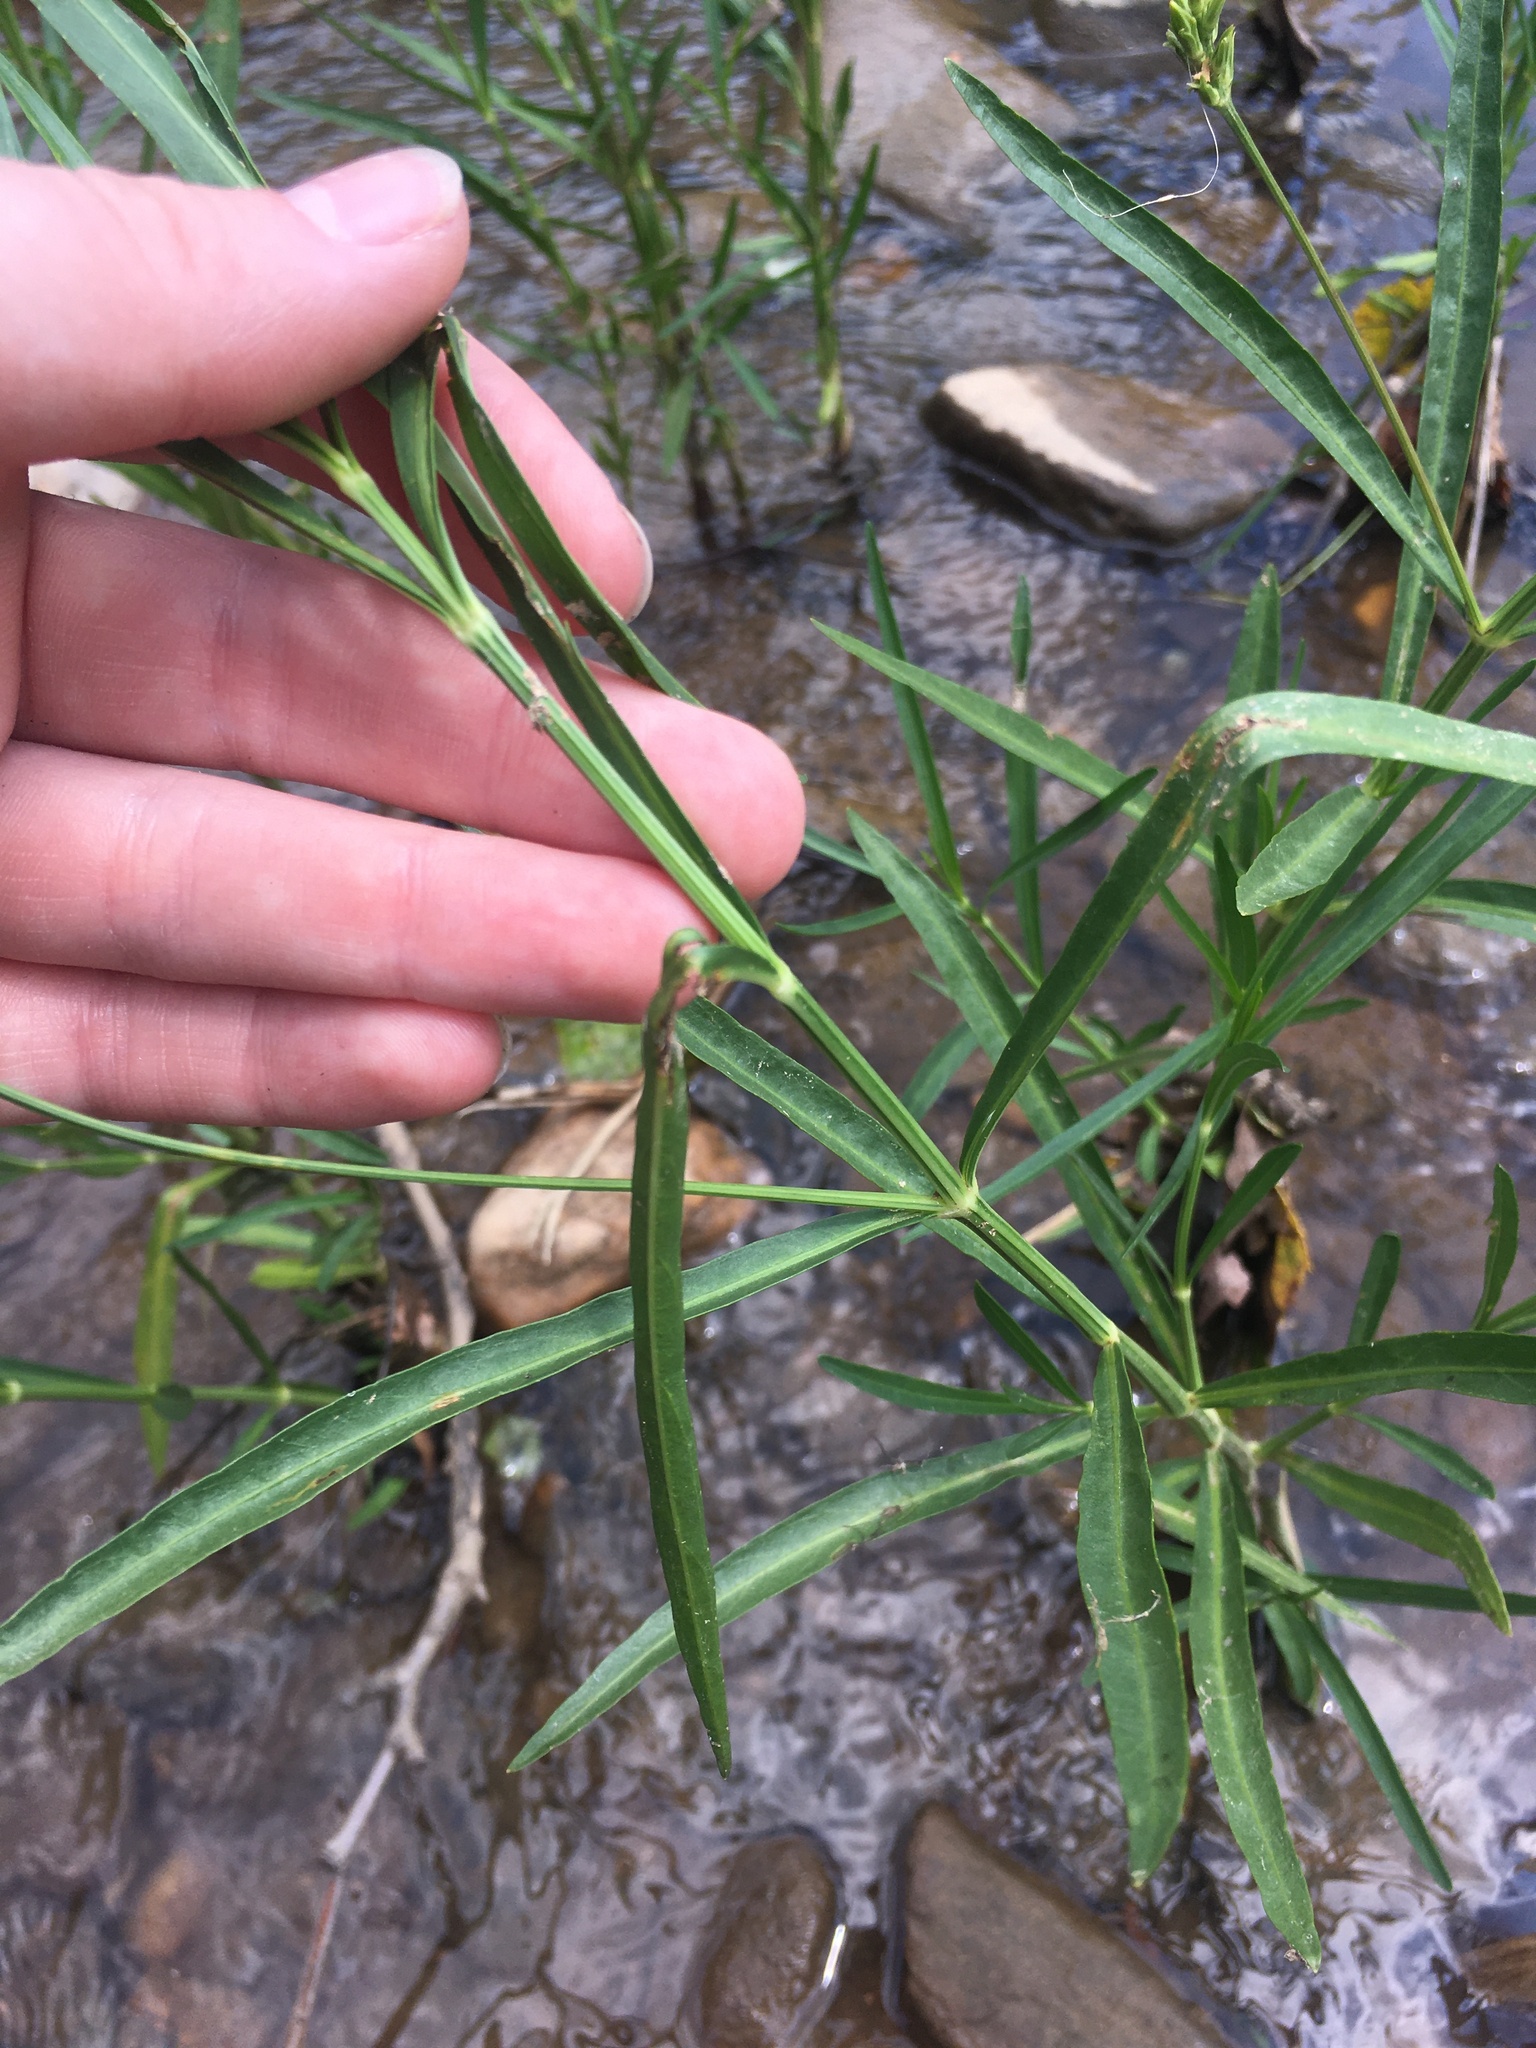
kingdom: Plantae
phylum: Tracheophyta
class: Magnoliopsida
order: Lamiales
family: Acanthaceae
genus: Dianthera
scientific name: Dianthera americana
